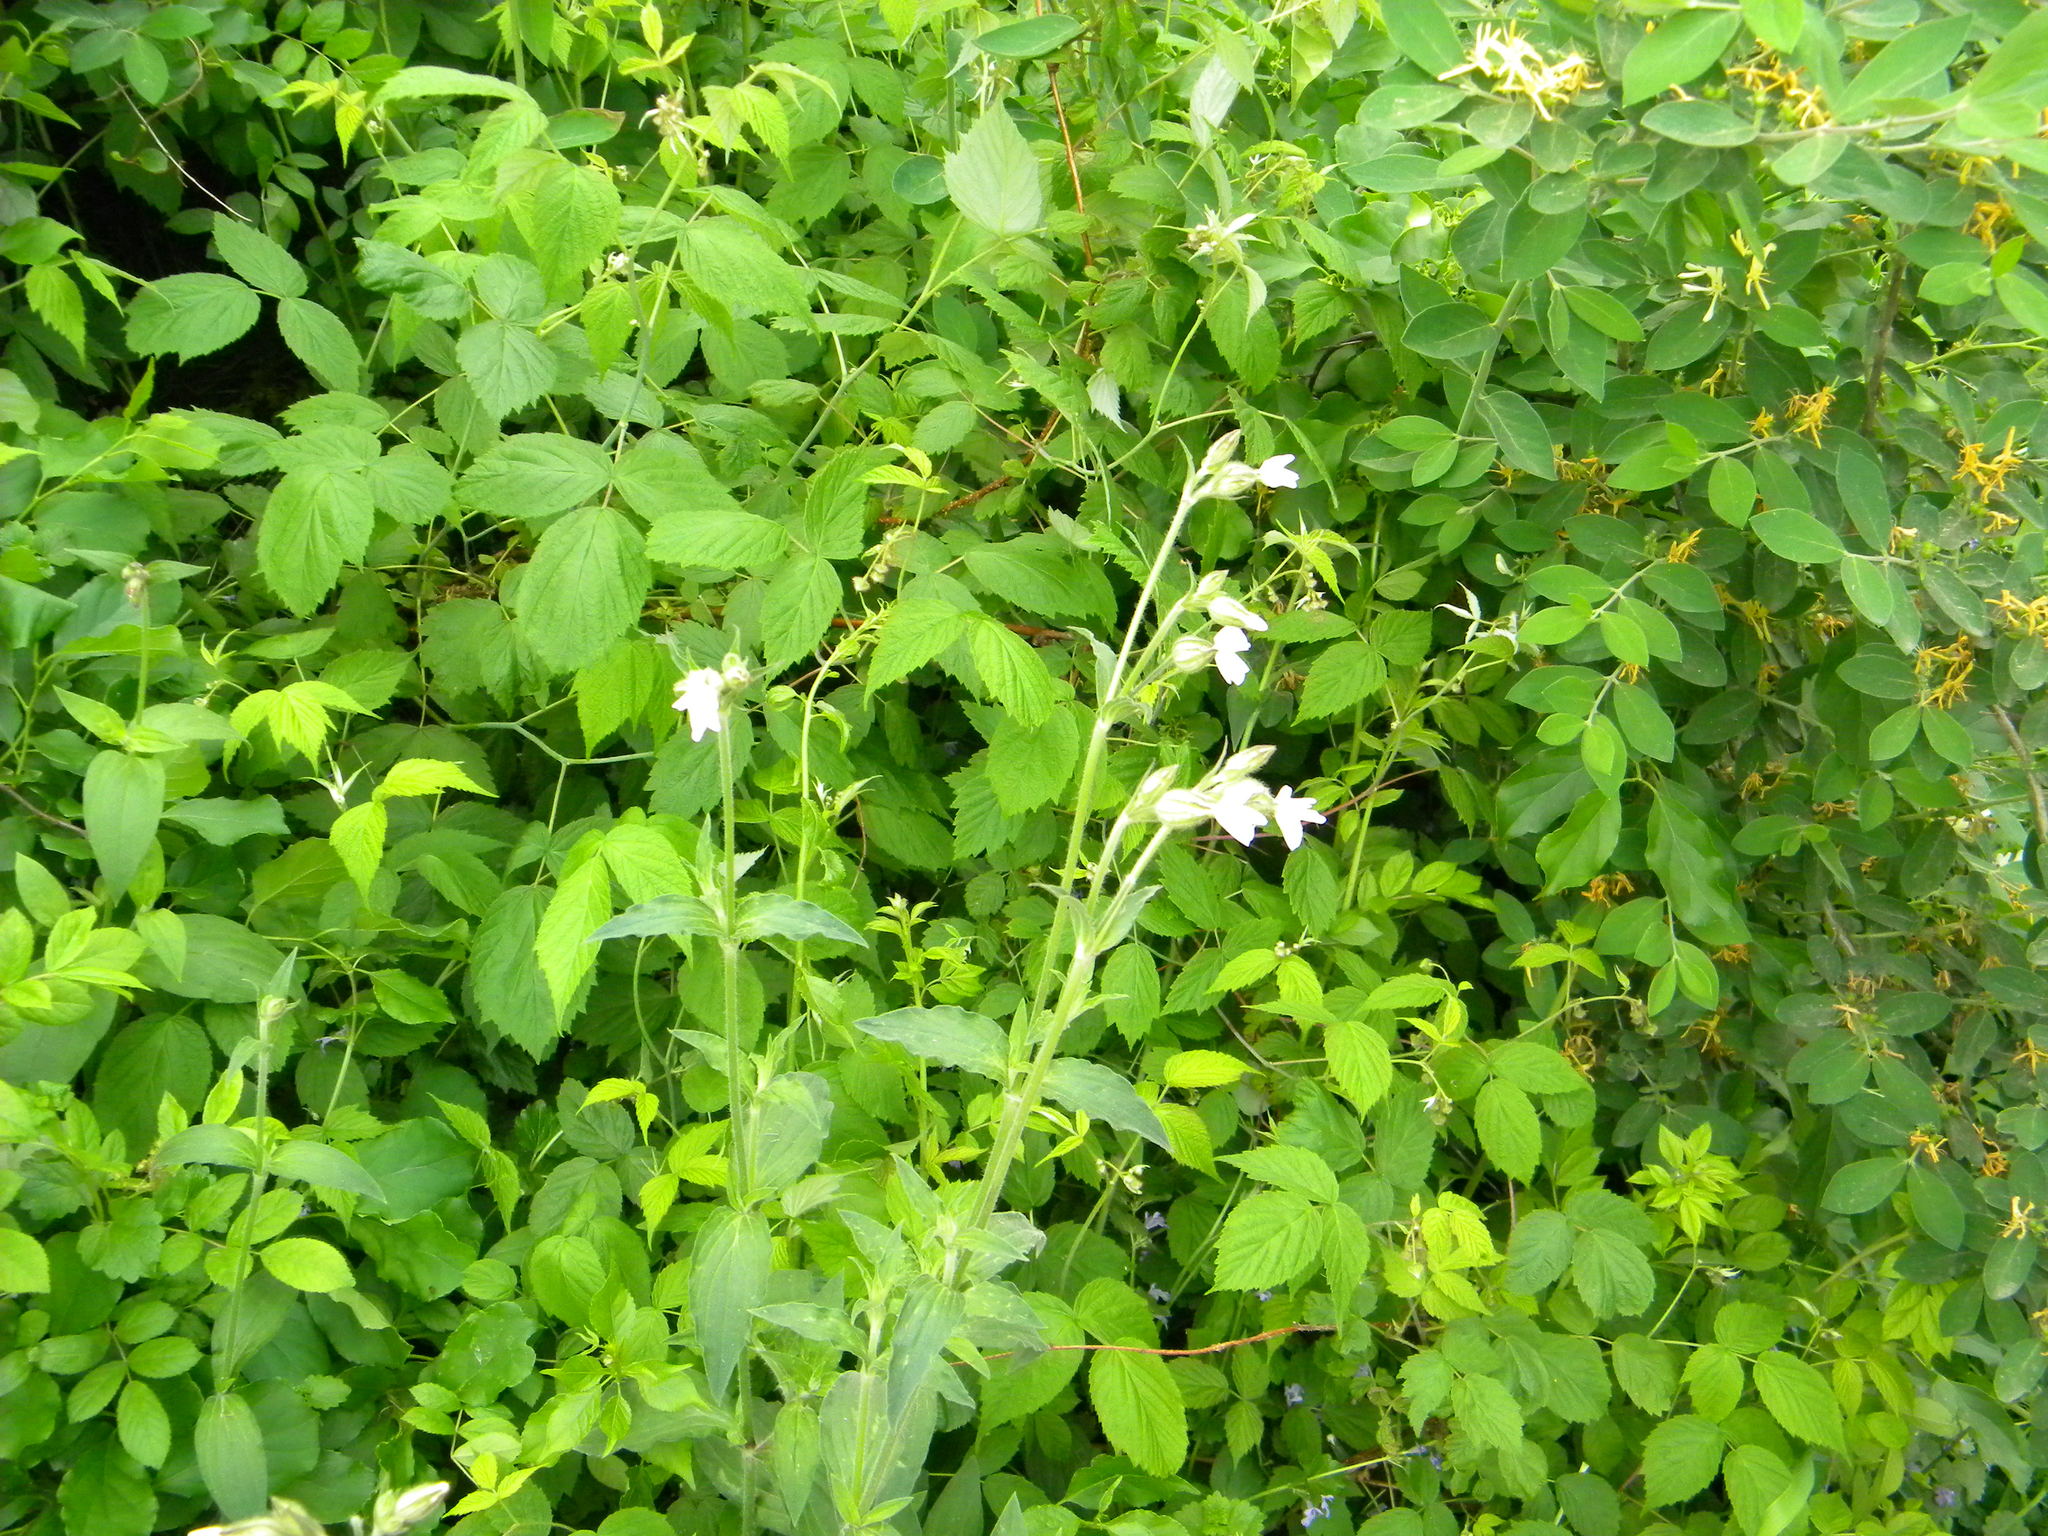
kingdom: Plantae
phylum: Tracheophyta
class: Magnoliopsida
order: Caryophyllales
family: Caryophyllaceae
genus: Silene
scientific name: Silene latifolia
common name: White campion
